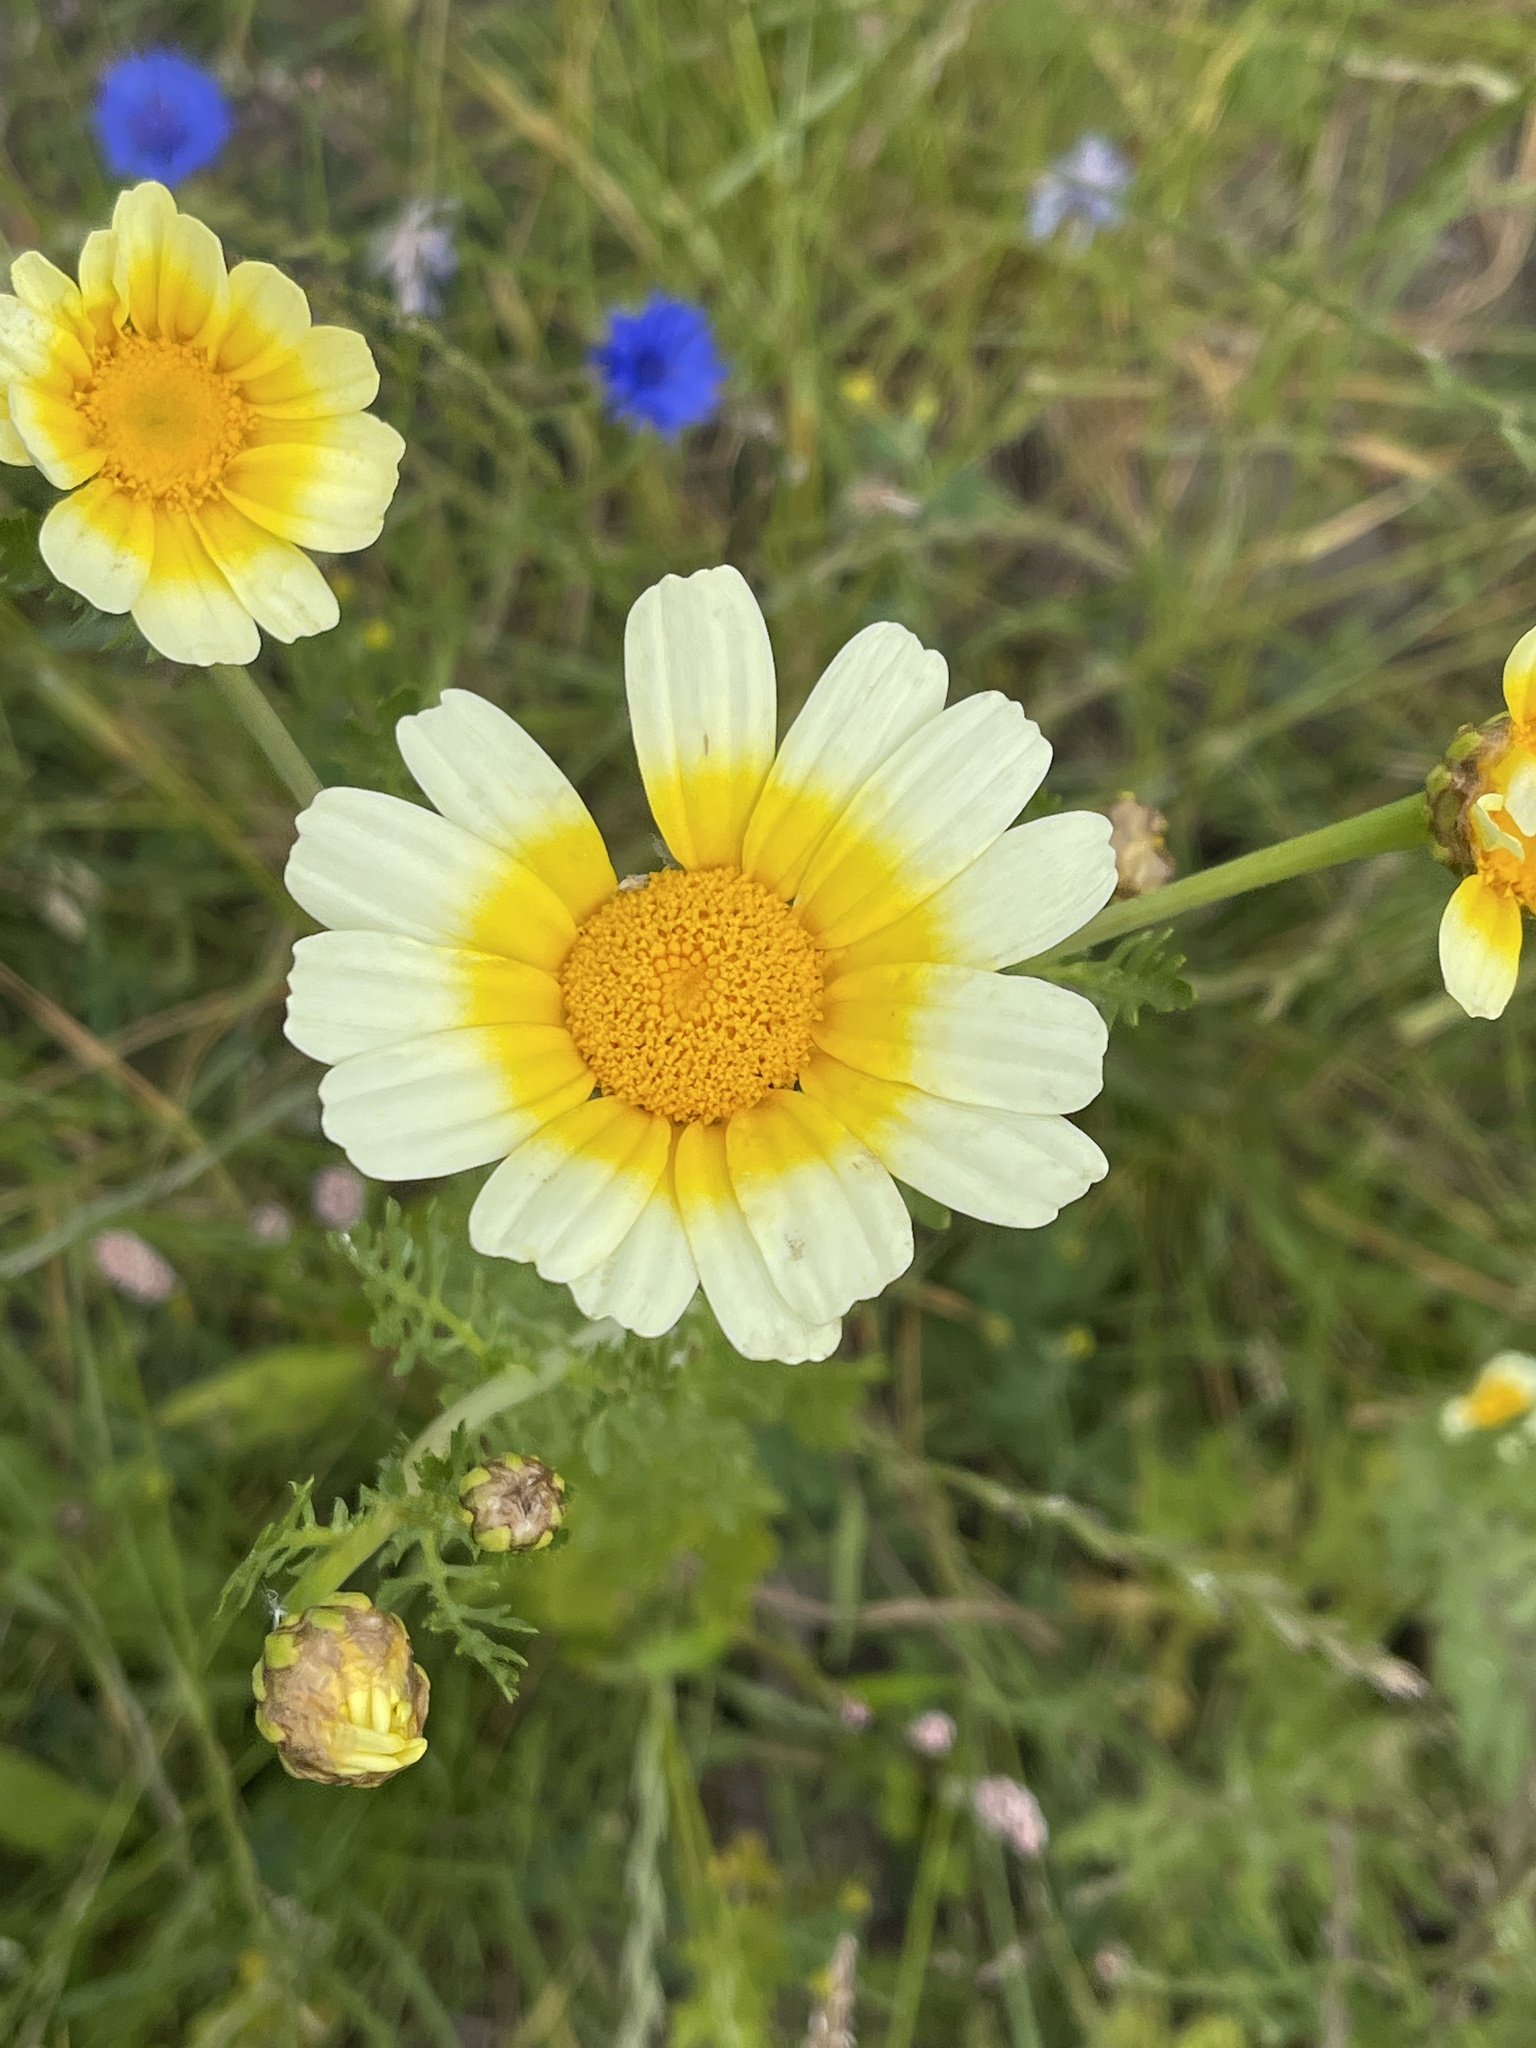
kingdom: Plantae
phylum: Tracheophyta
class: Magnoliopsida
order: Asterales
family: Asteraceae
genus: Glebionis
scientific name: Glebionis coronaria
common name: Crowndaisy
